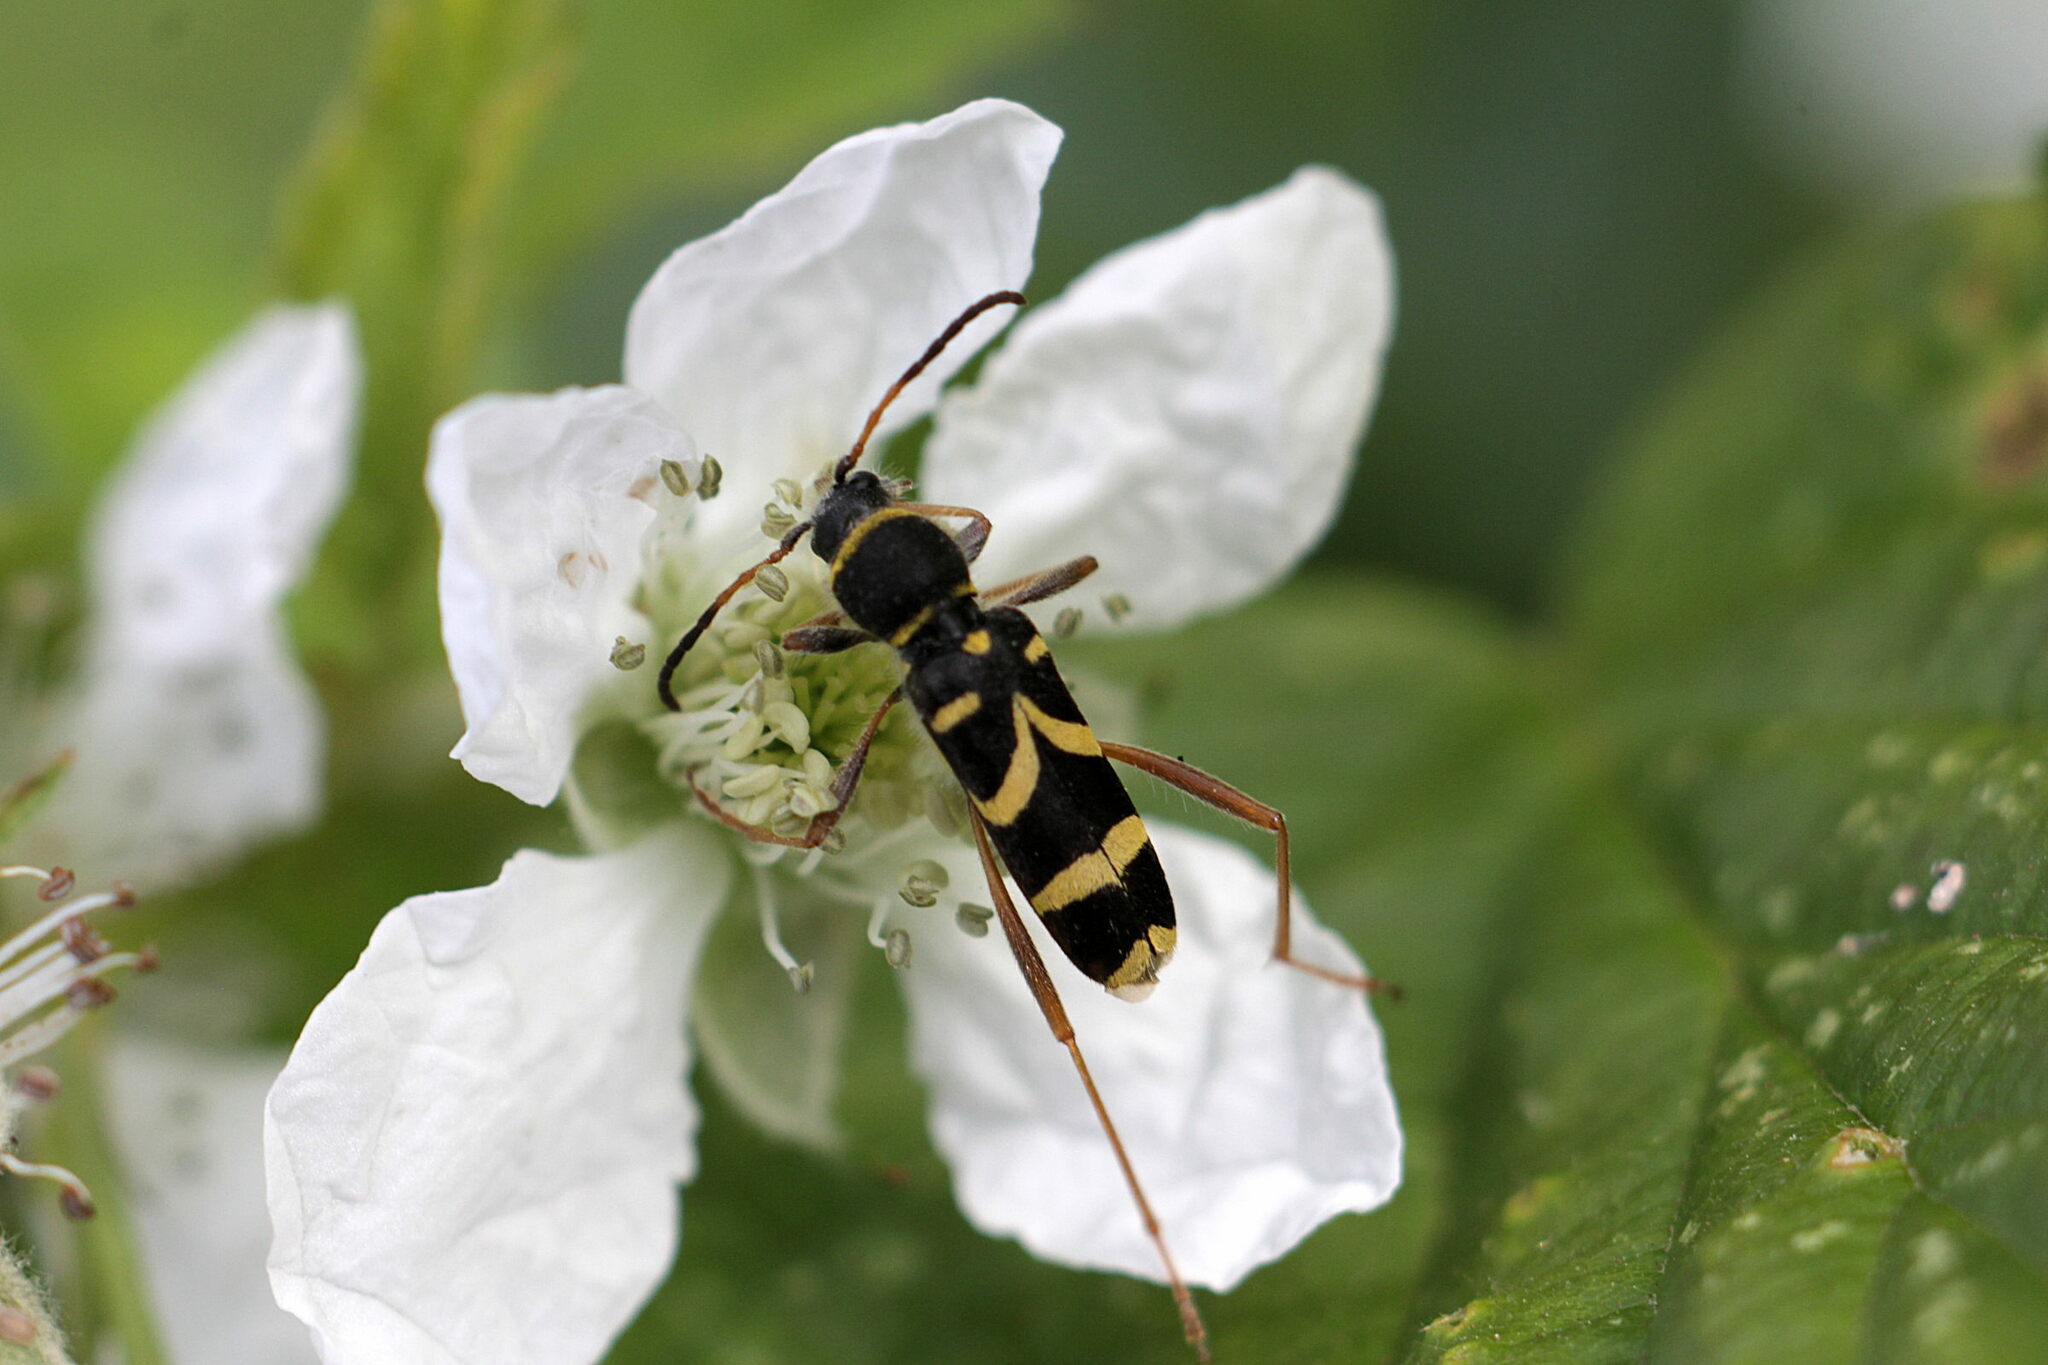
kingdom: Animalia
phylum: Arthropoda
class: Insecta
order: Coleoptera
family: Cerambycidae
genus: Clytus
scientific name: Clytus arietis
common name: Wasp beetle
